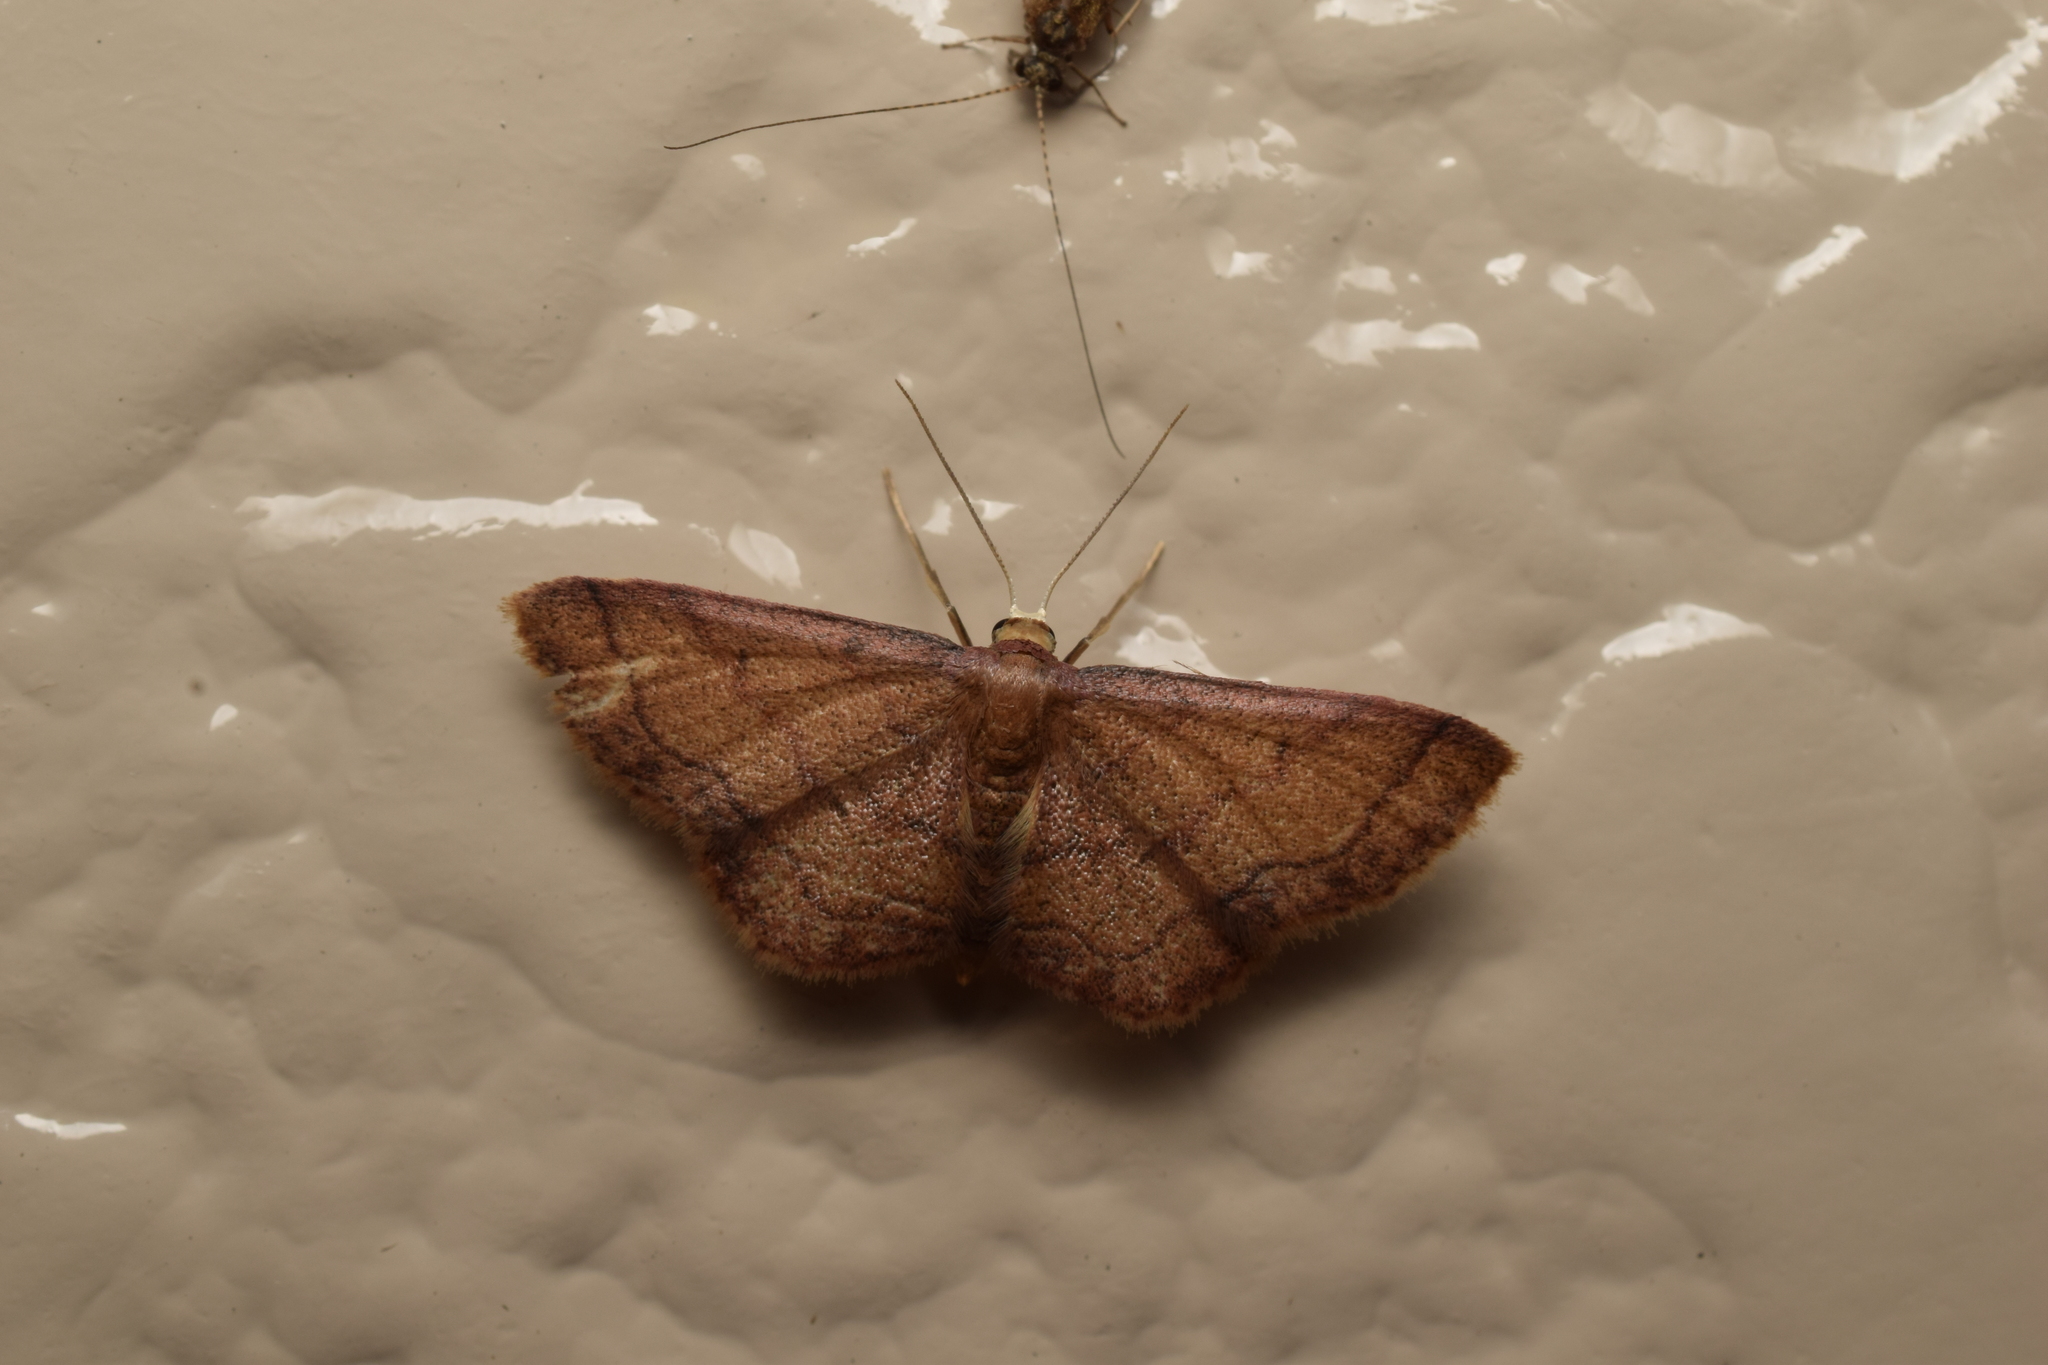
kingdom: Animalia
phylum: Arthropoda
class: Insecta
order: Lepidoptera
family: Geometridae
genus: Idaea
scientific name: Idaea foedata
